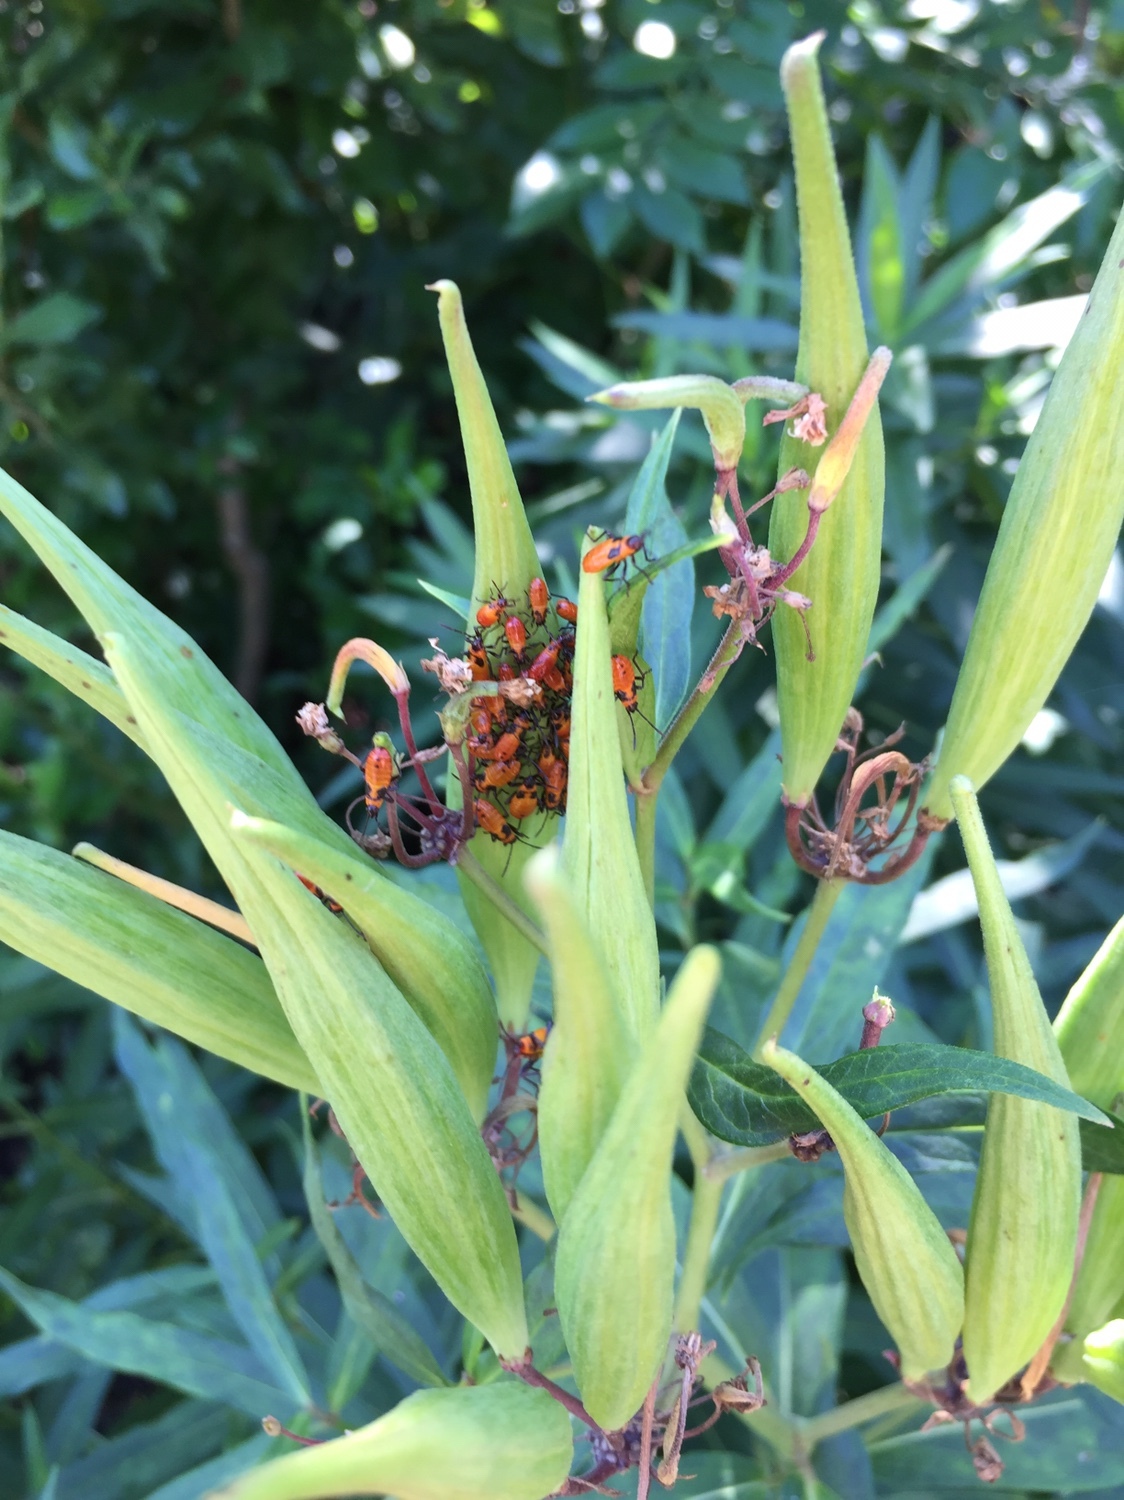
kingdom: Animalia
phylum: Arthropoda
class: Insecta
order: Hemiptera
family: Lygaeidae
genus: Oncopeltus
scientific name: Oncopeltus fasciatus
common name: Large milkweed bug
